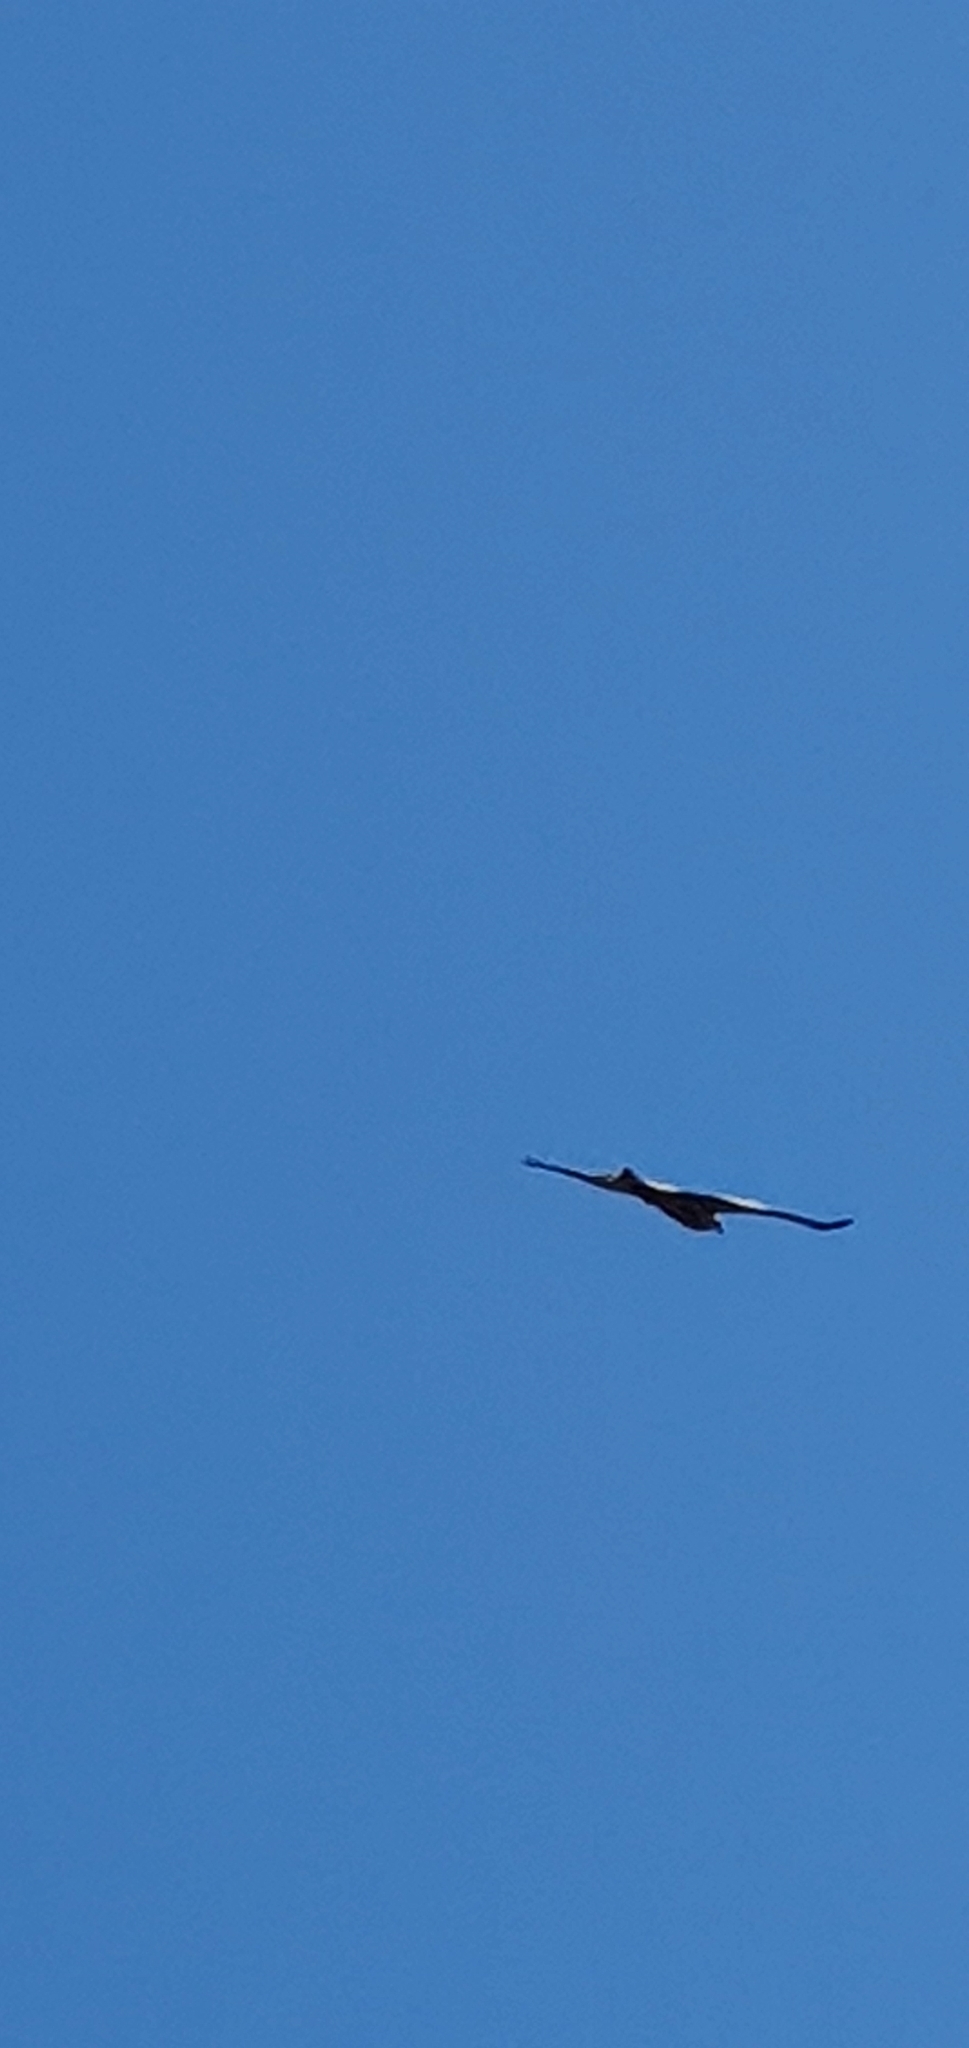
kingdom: Animalia
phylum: Chordata
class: Aves
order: Accipitriformes
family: Accipitridae
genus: Milvus
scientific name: Milvus migrans
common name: Black kite
